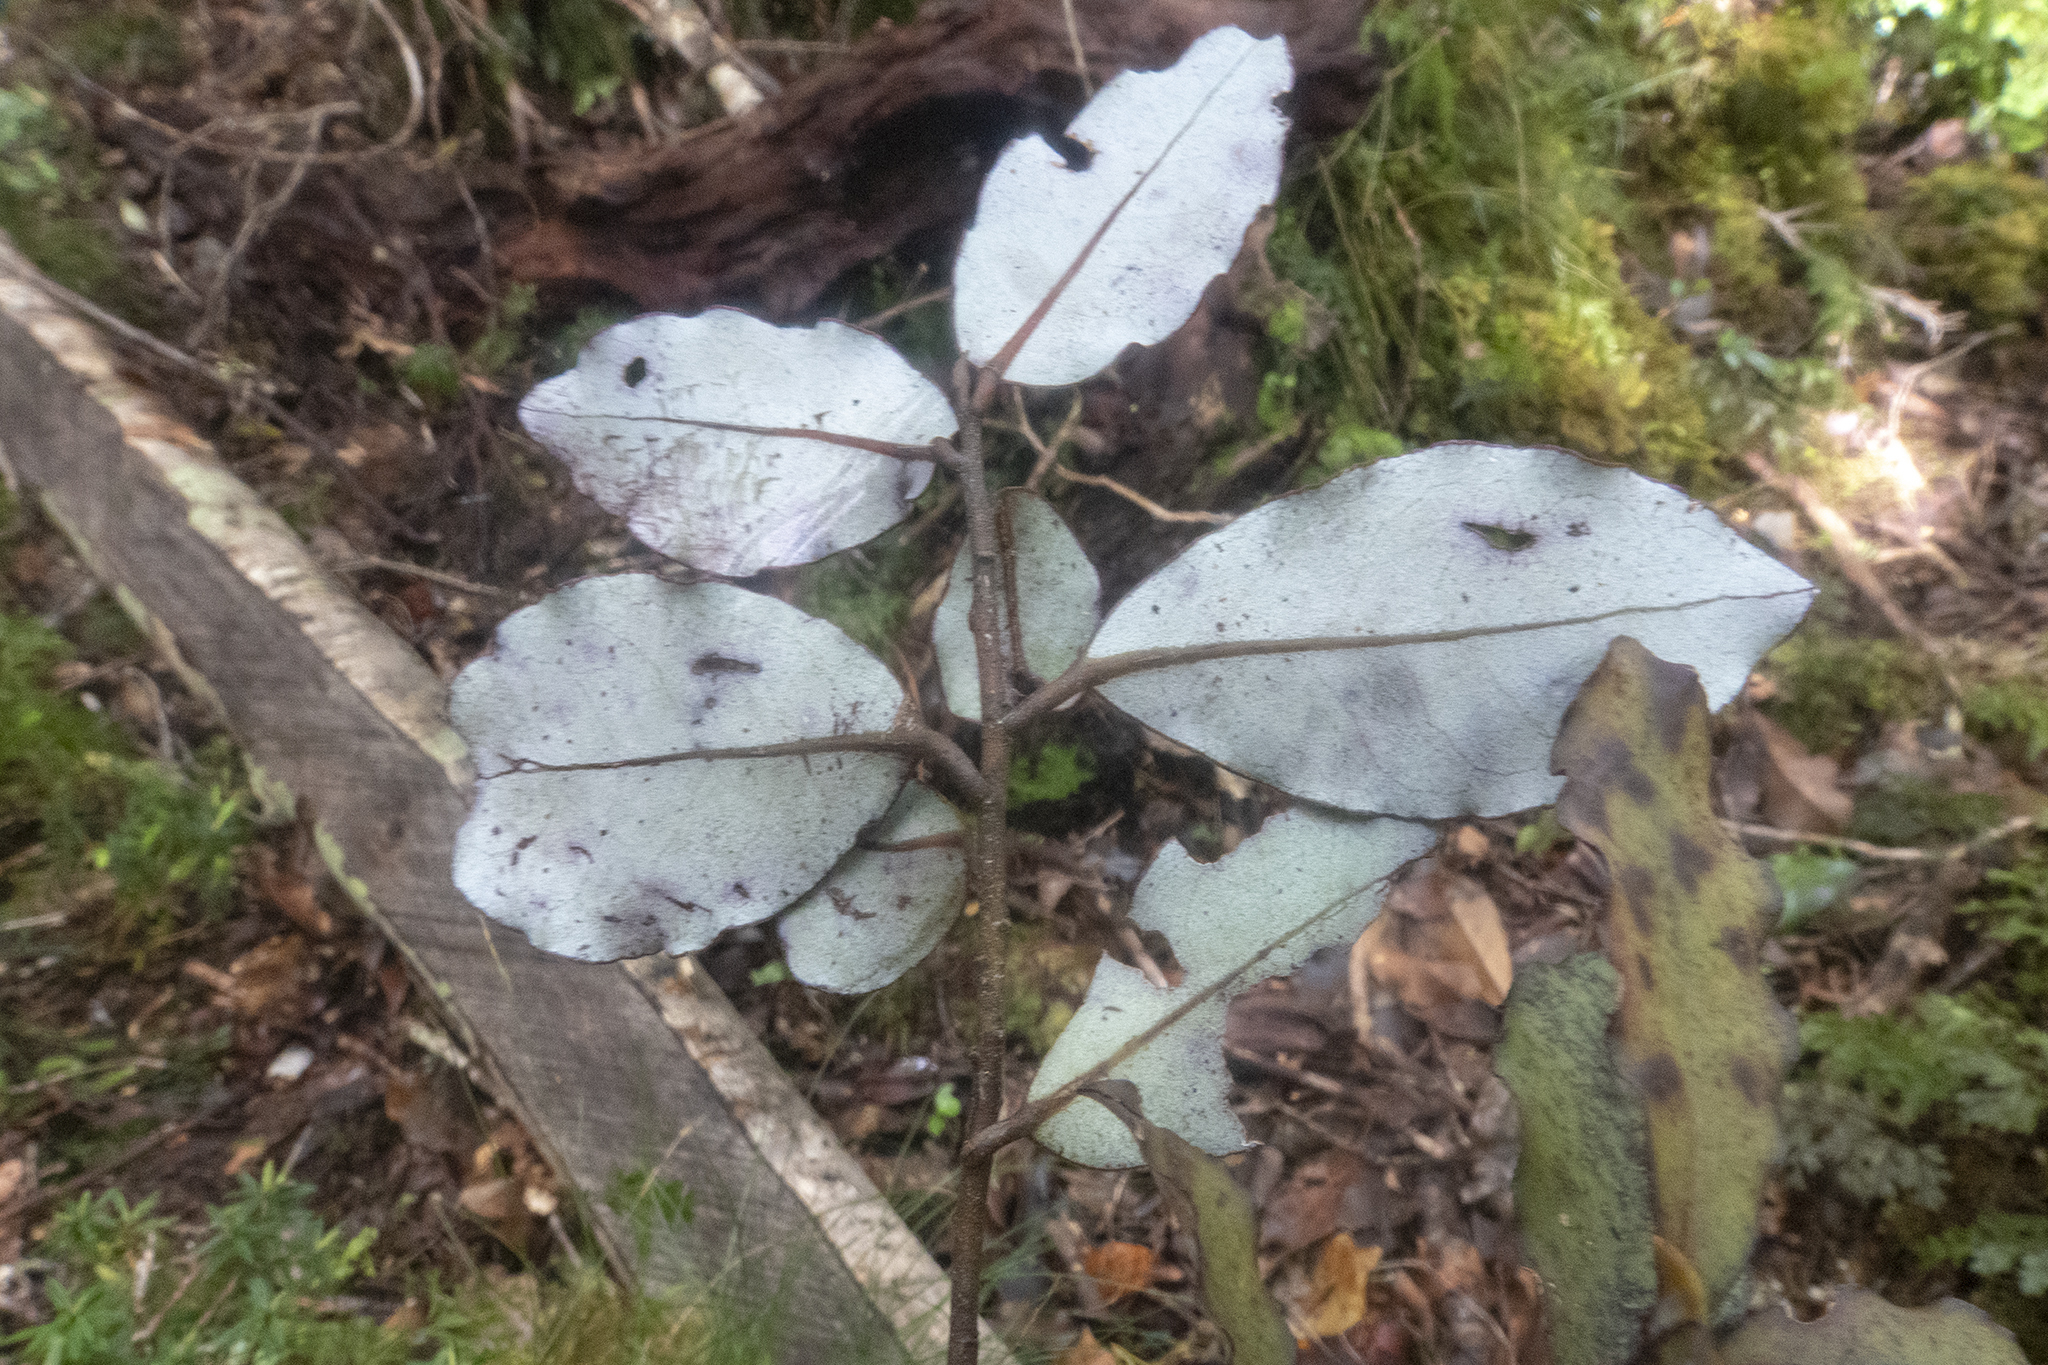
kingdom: Plantae
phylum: Tracheophyta
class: Magnoliopsida
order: Canellales
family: Winteraceae
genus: Pseudowintera
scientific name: Pseudowintera colorata
